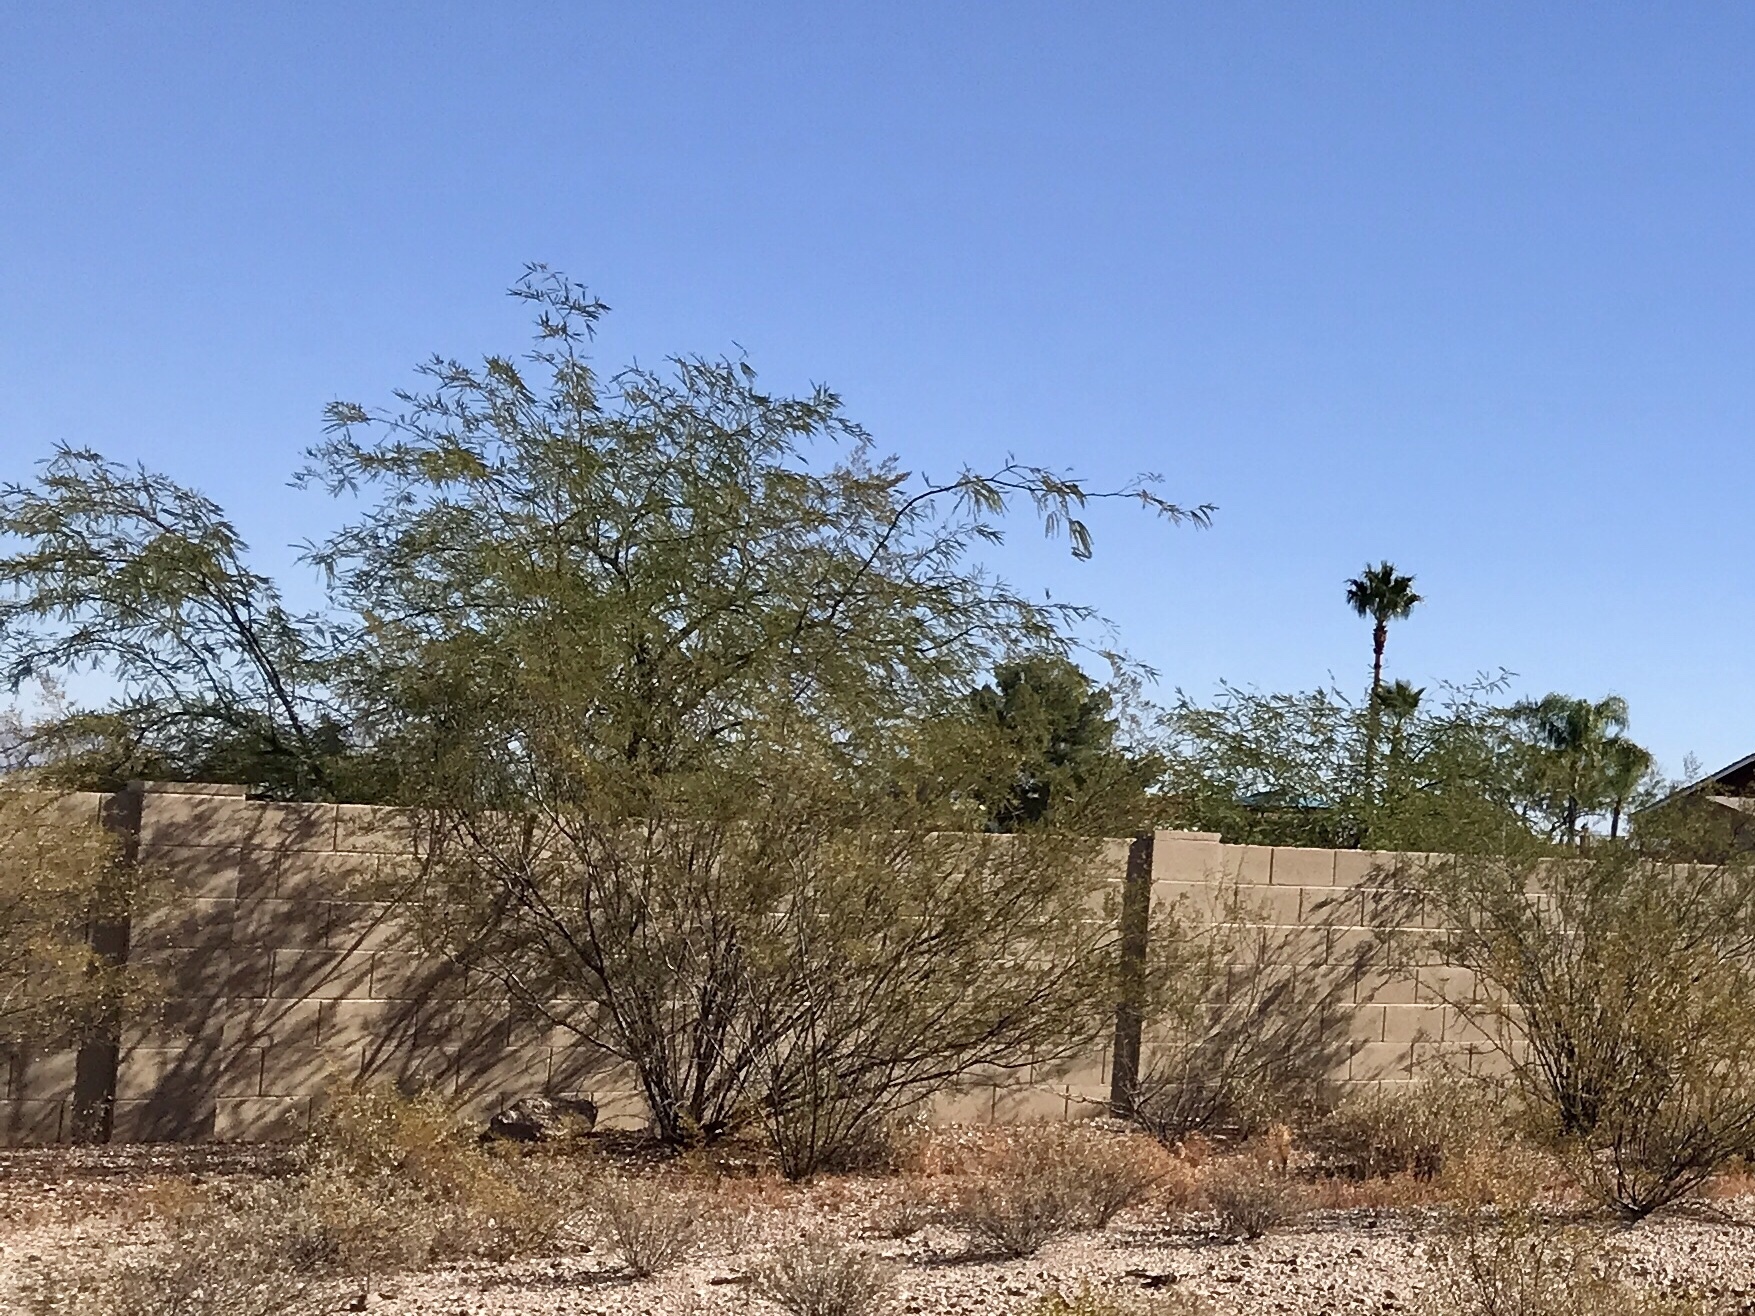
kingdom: Plantae
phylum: Tracheophyta
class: Magnoliopsida
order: Fabales
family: Fabaceae
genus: Prosopis
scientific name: Prosopis velutina
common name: Velvet mesquite
